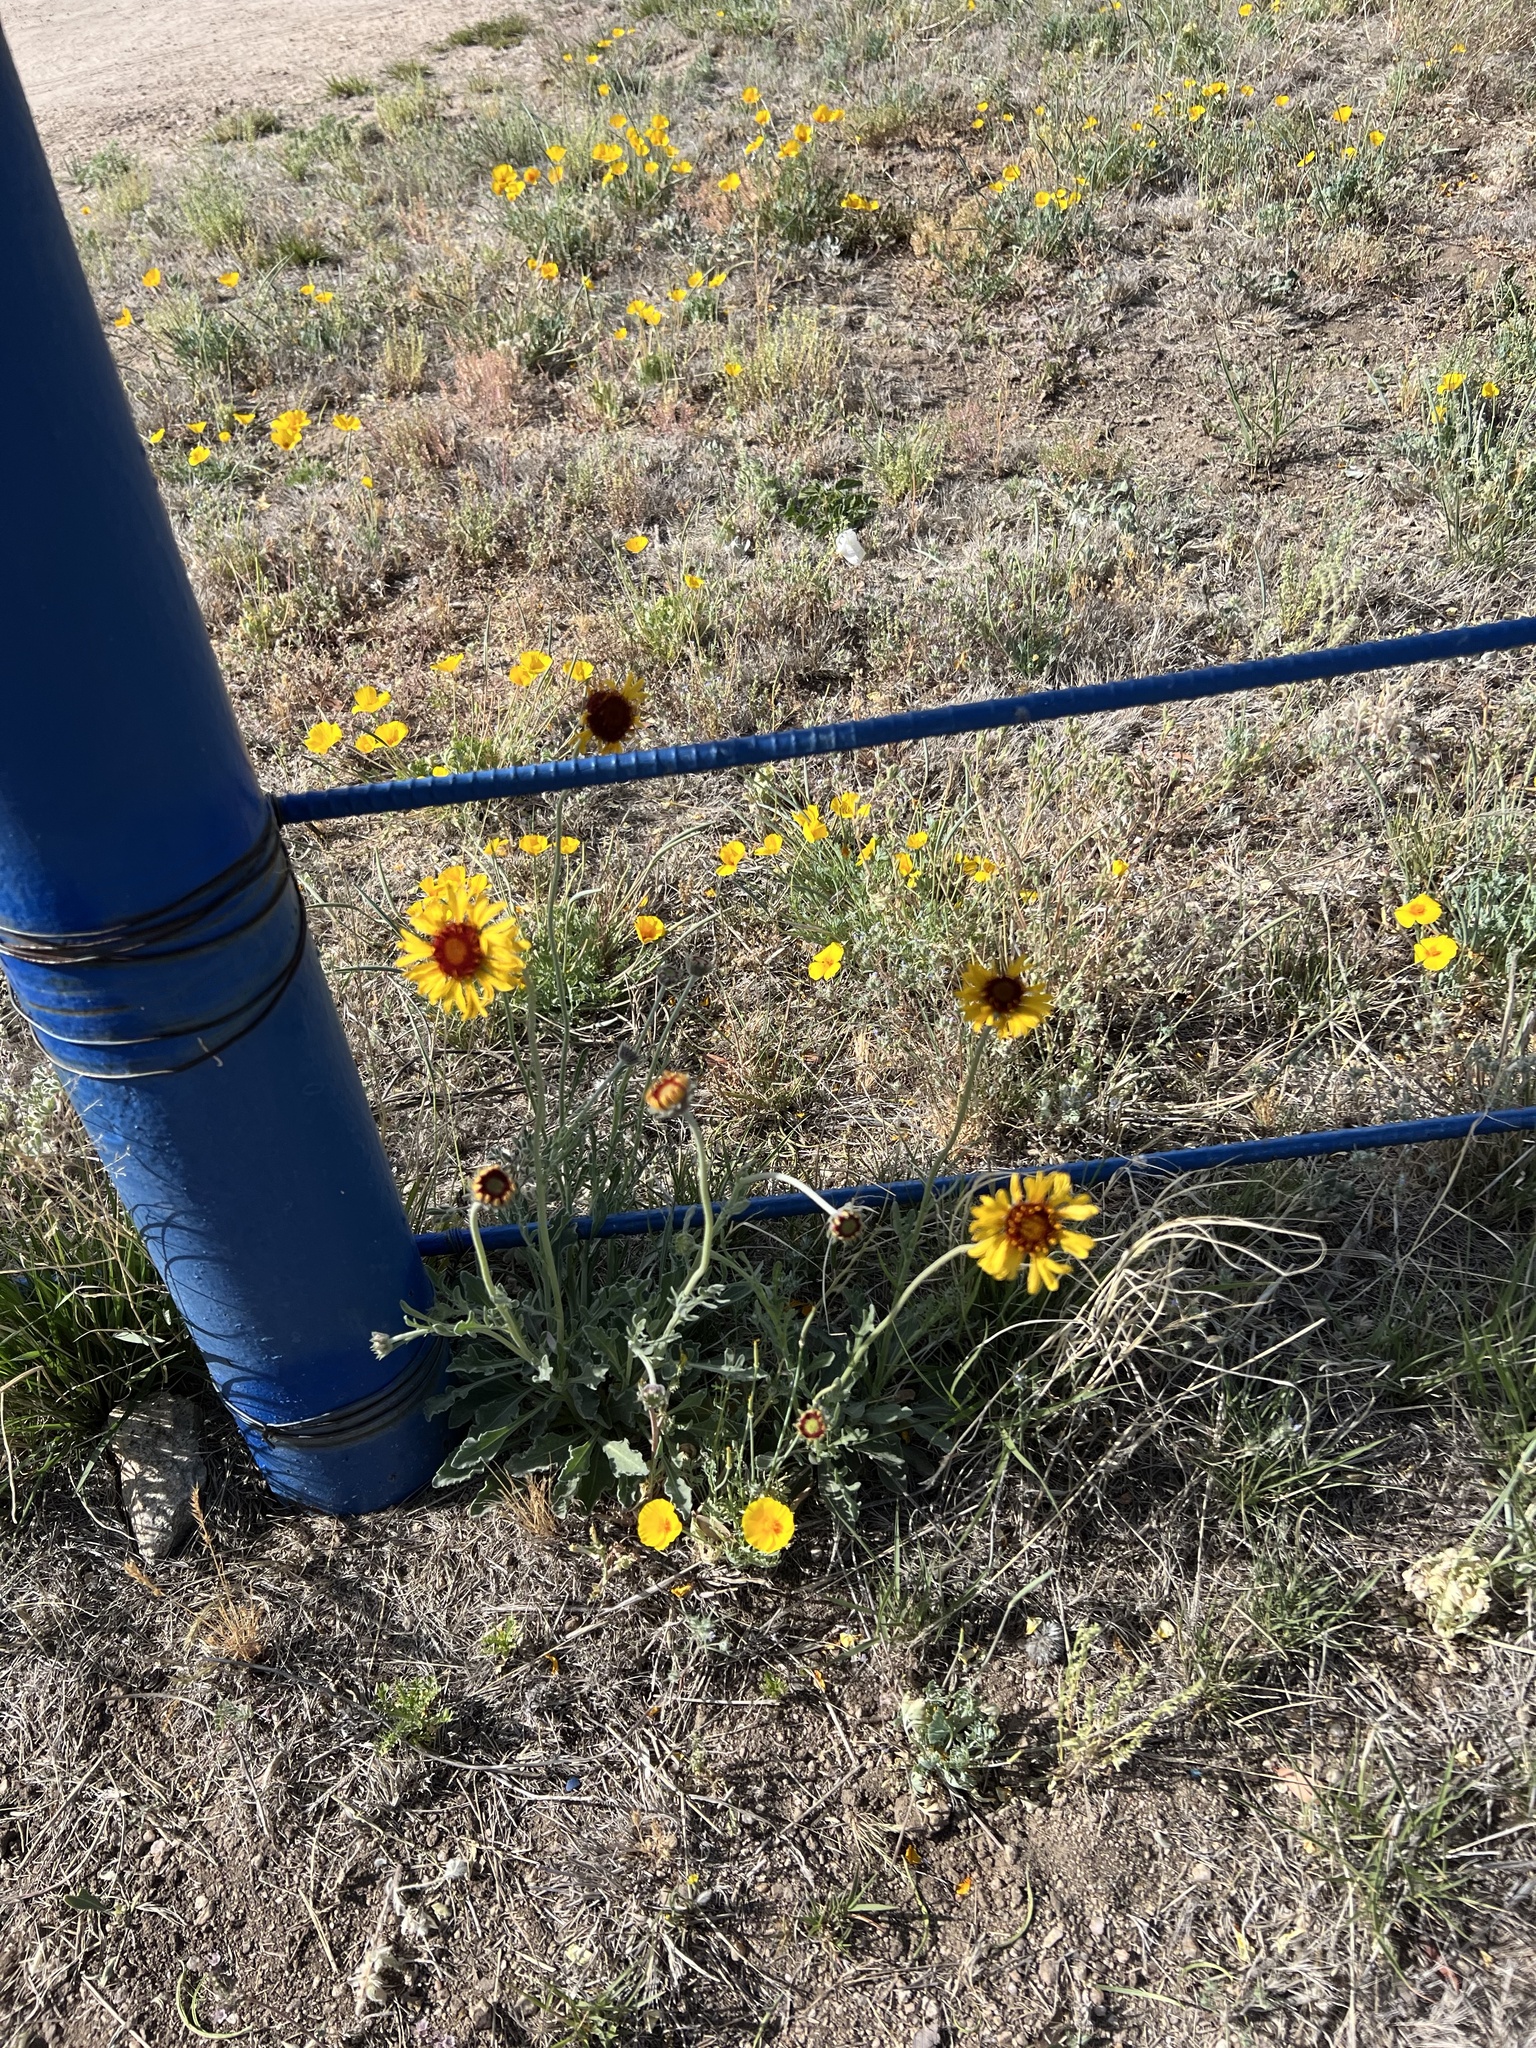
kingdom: Plantae
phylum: Tracheophyta
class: Magnoliopsida
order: Asterales
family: Asteraceae
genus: Gaillardia
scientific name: Gaillardia pinnatifida
